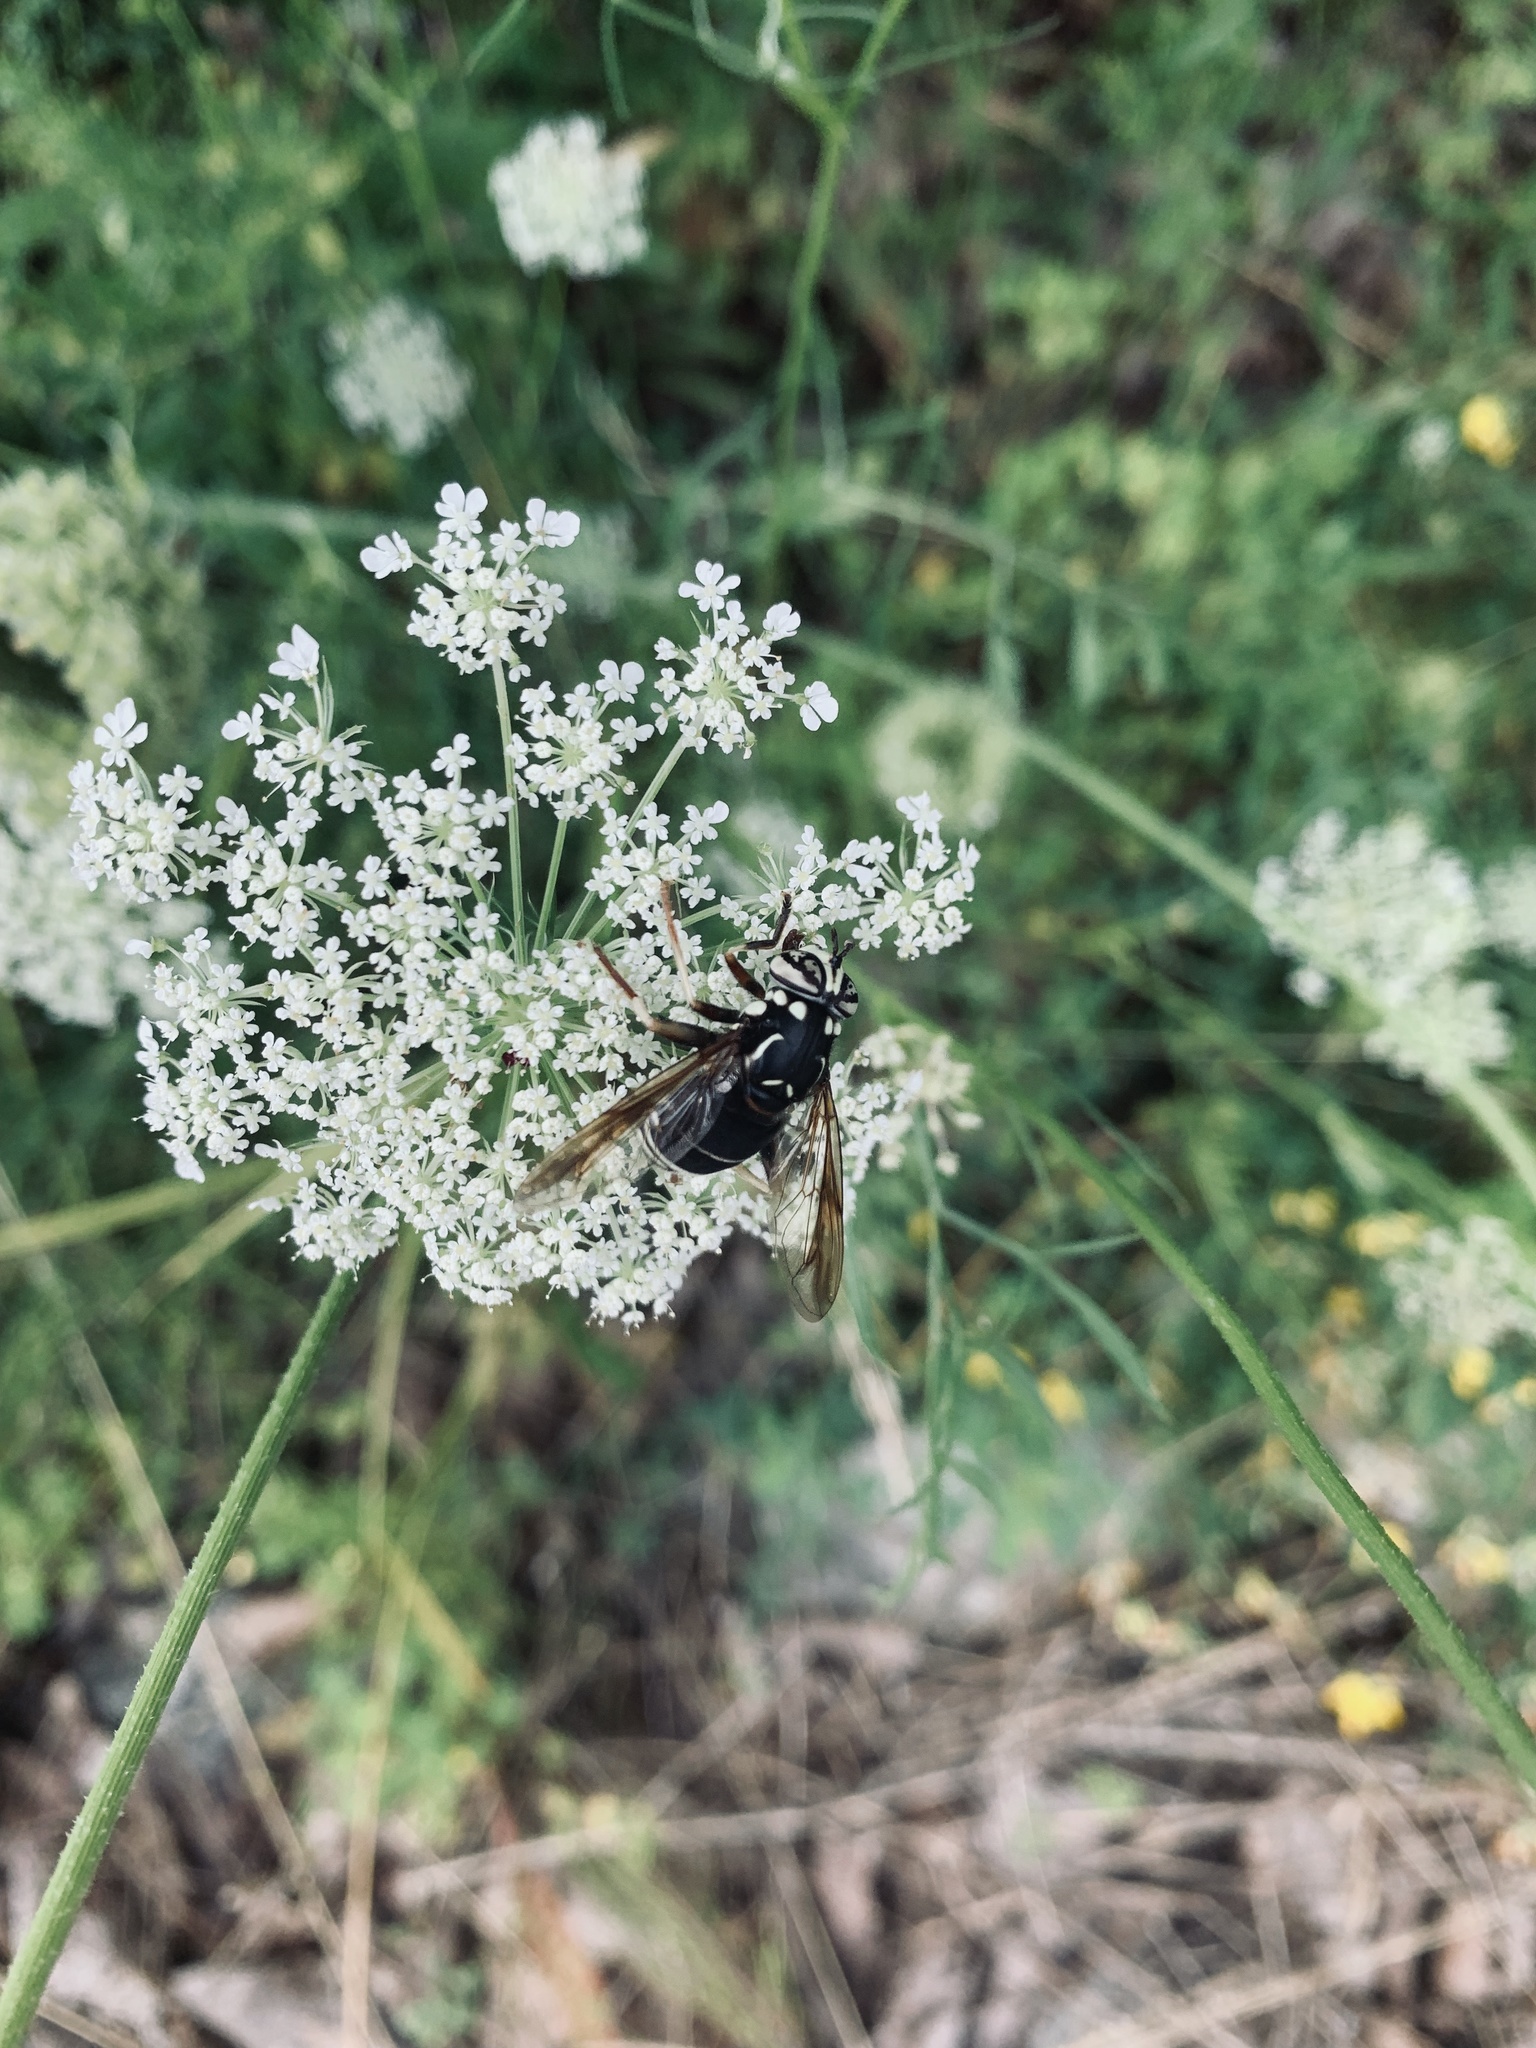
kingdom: Animalia
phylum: Arthropoda
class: Insecta
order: Diptera
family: Syrphidae
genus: Spilomyia
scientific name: Spilomyia fusca
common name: Bald-faced hornet fly
